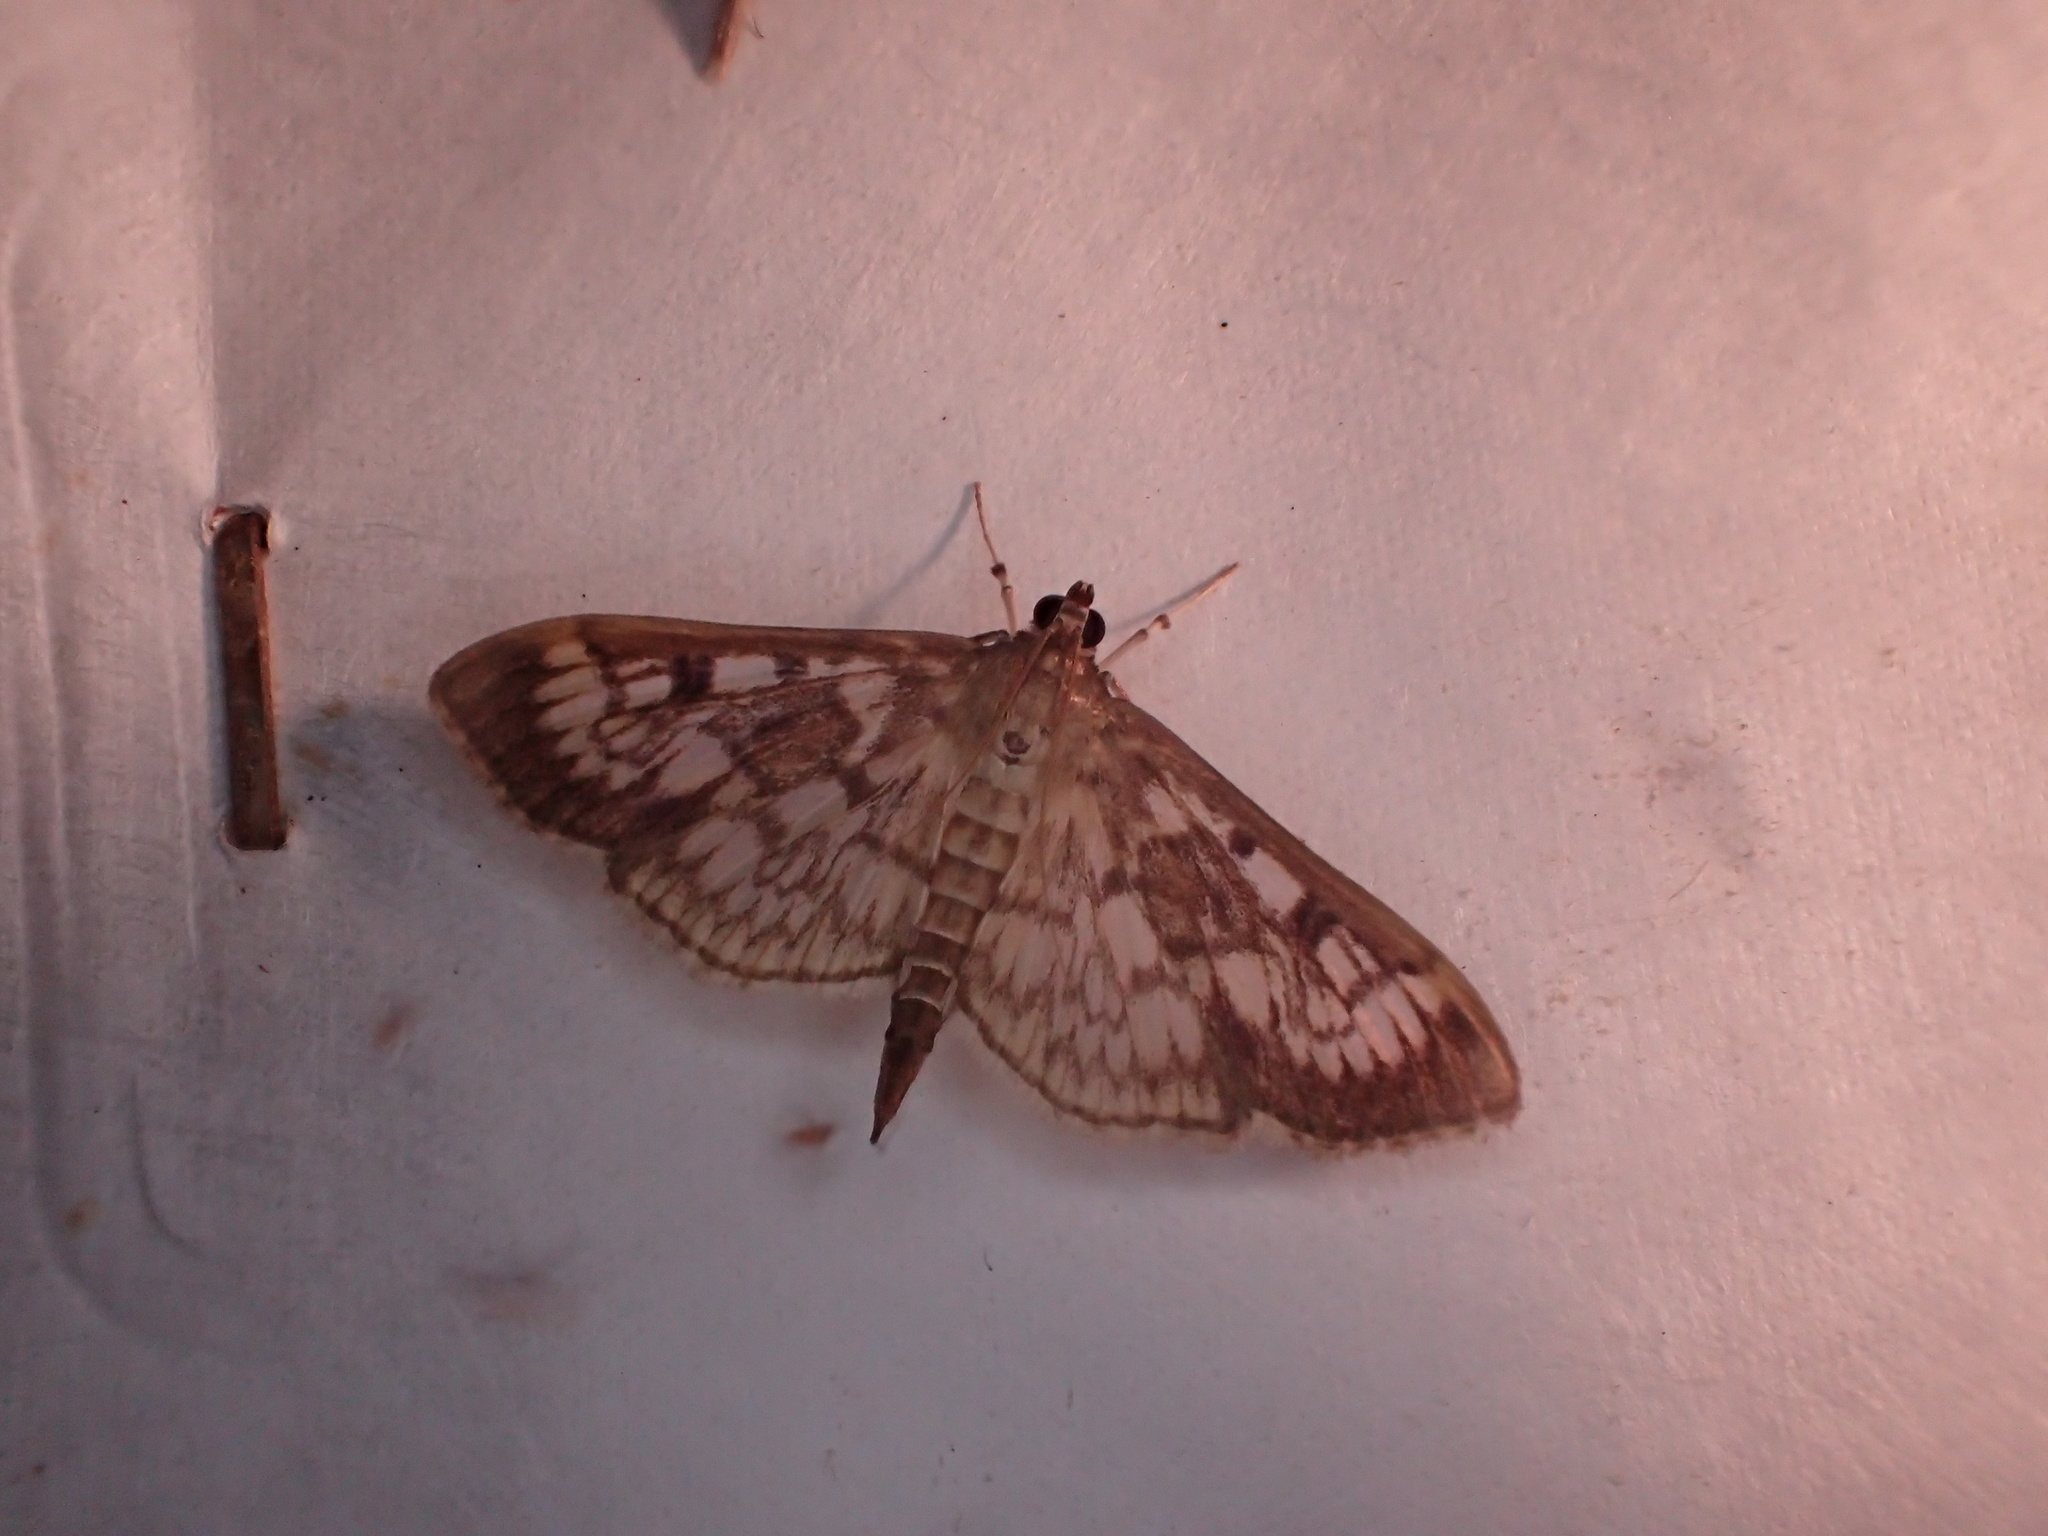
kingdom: Animalia
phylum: Arthropoda
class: Insecta
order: Lepidoptera
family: Crambidae
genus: Herpetogramma
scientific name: Herpetogramma thestealis
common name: Zigzag herpetogramma moth
